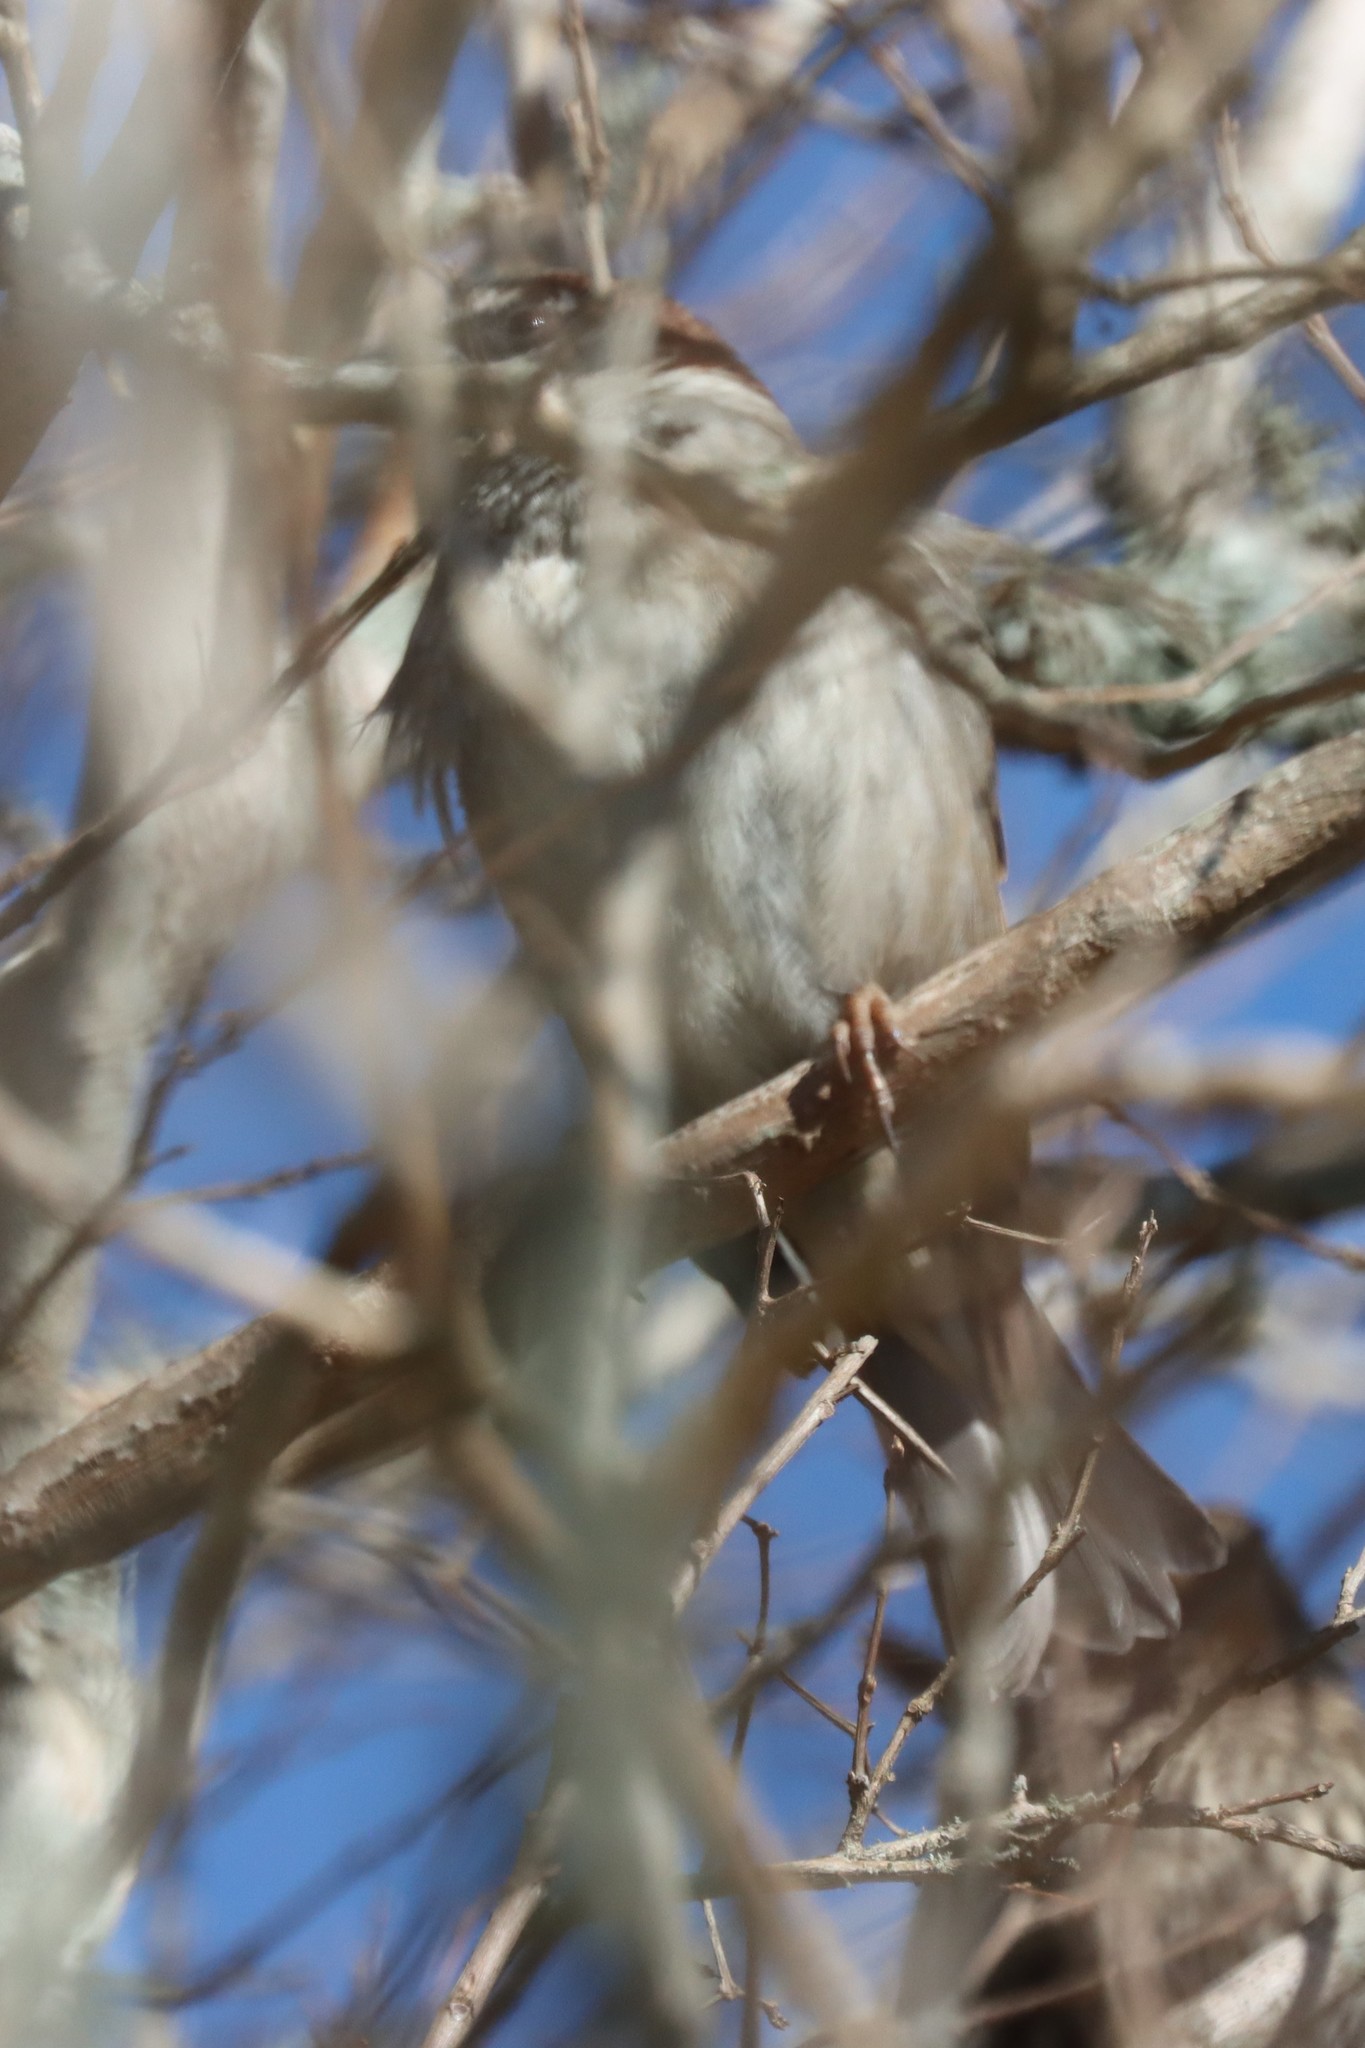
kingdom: Animalia
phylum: Chordata
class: Aves
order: Passeriformes
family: Passeridae
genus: Passer
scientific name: Passer domesticus
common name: House sparrow
